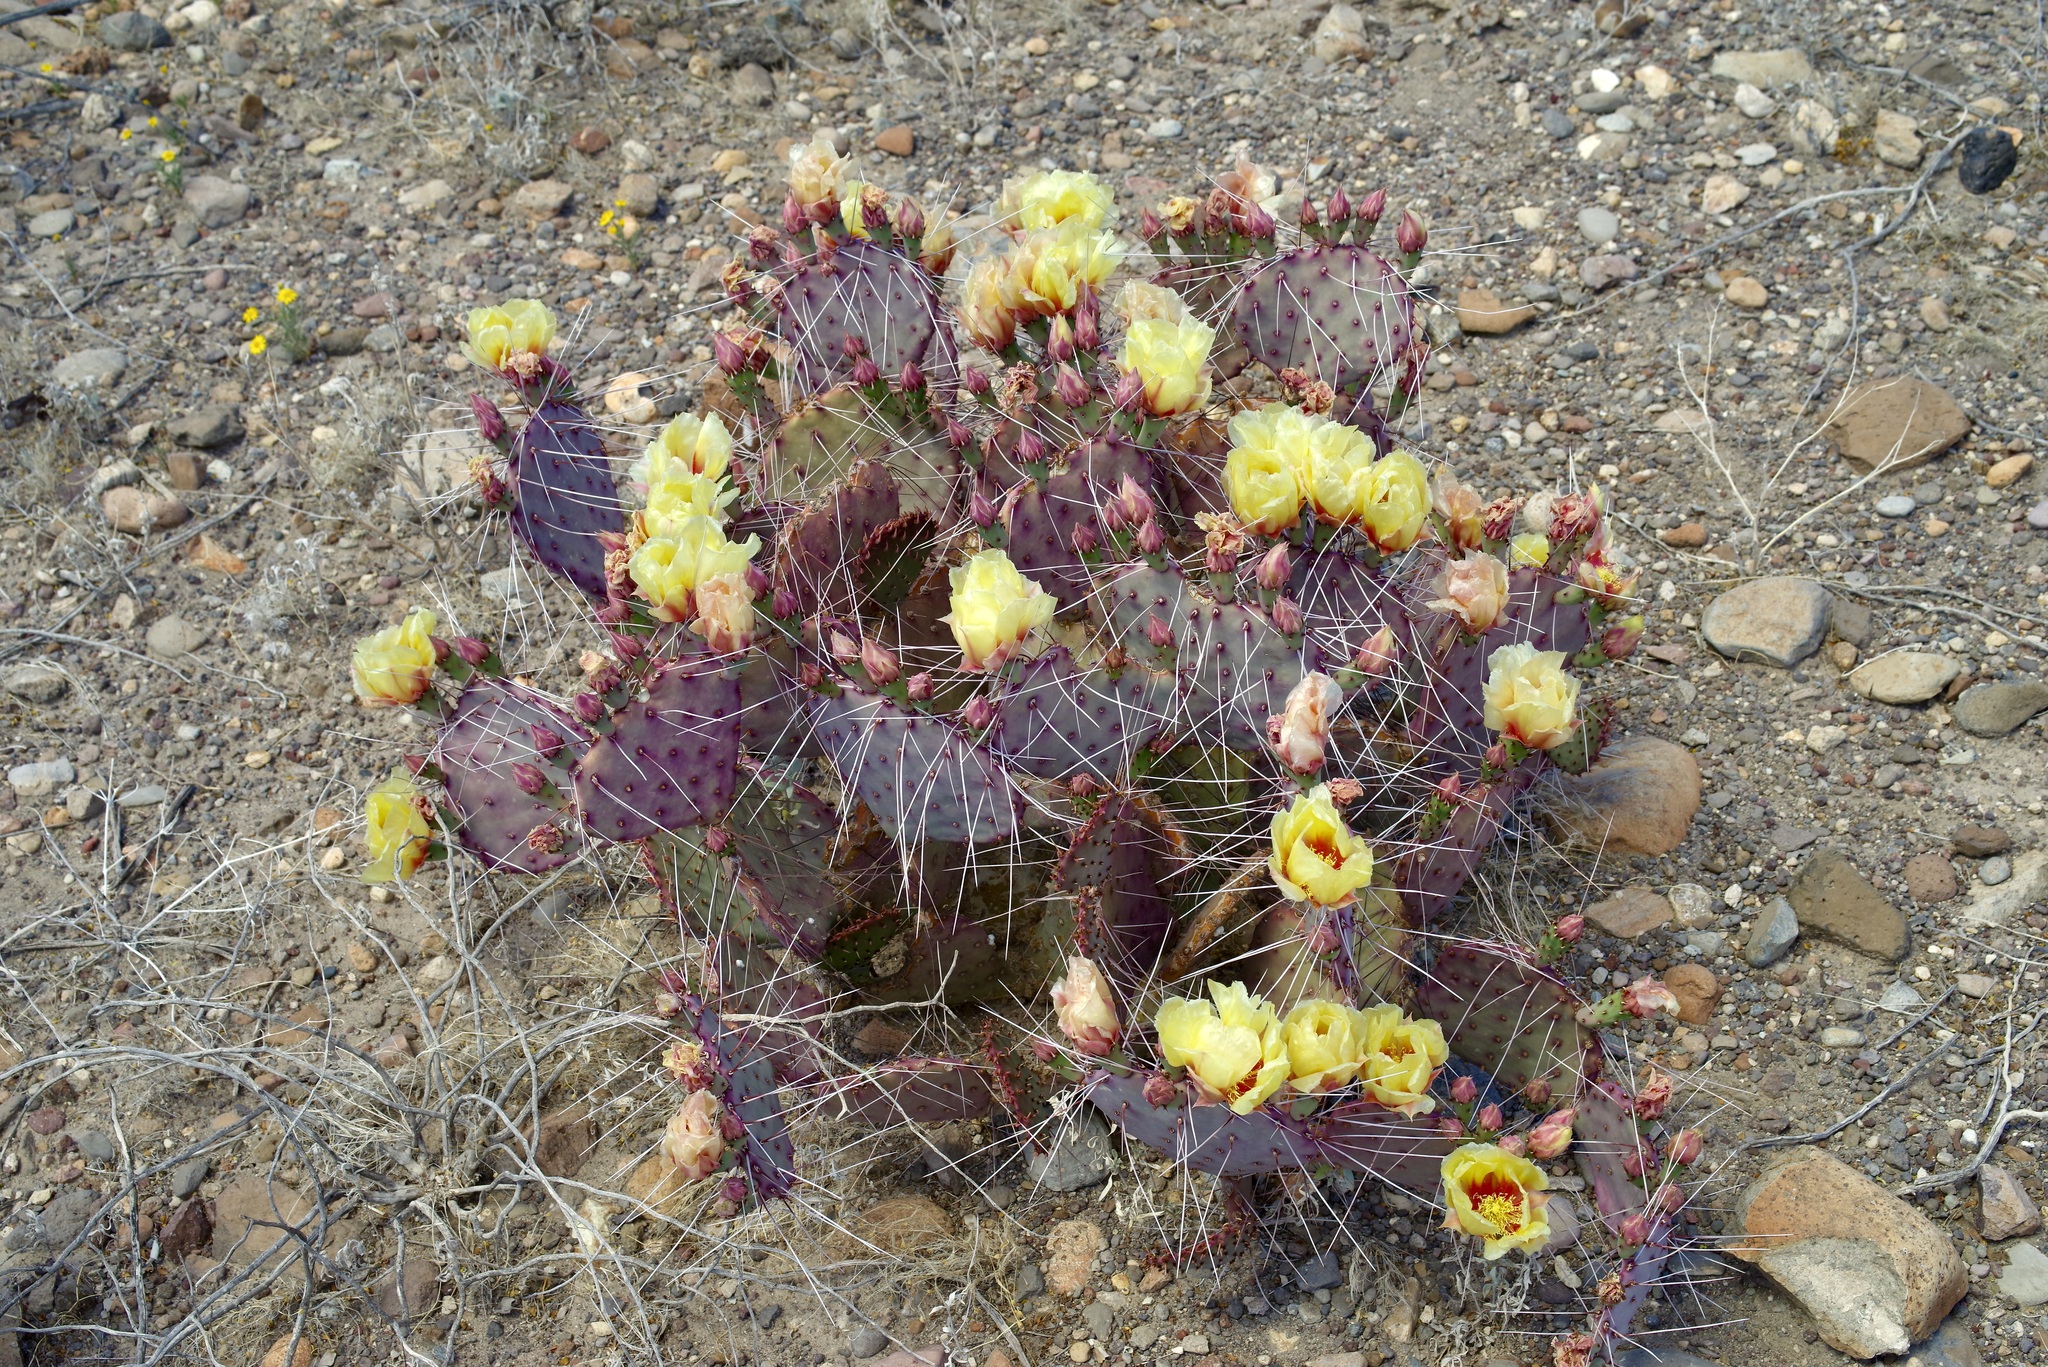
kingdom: Plantae
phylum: Tracheophyta
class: Magnoliopsida
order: Caryophyllales
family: Cactaceae
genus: Opuntia
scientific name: Opuntia aureispina
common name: Golden-spined prickly-pear
